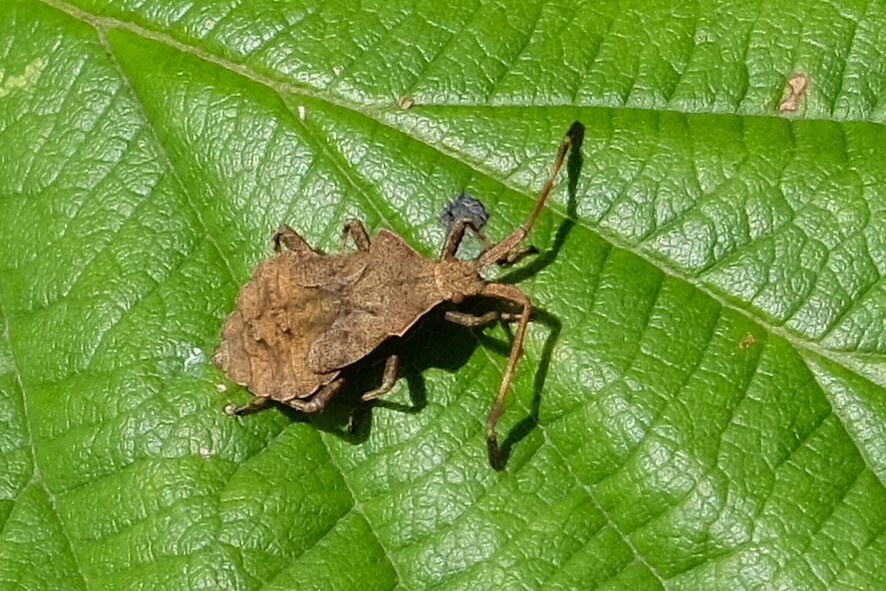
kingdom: Animalia
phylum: Arthropoda
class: Insecta
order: Hemiptera
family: Coreidae
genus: Coreus
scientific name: Coreus marginatus
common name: Dock bug
